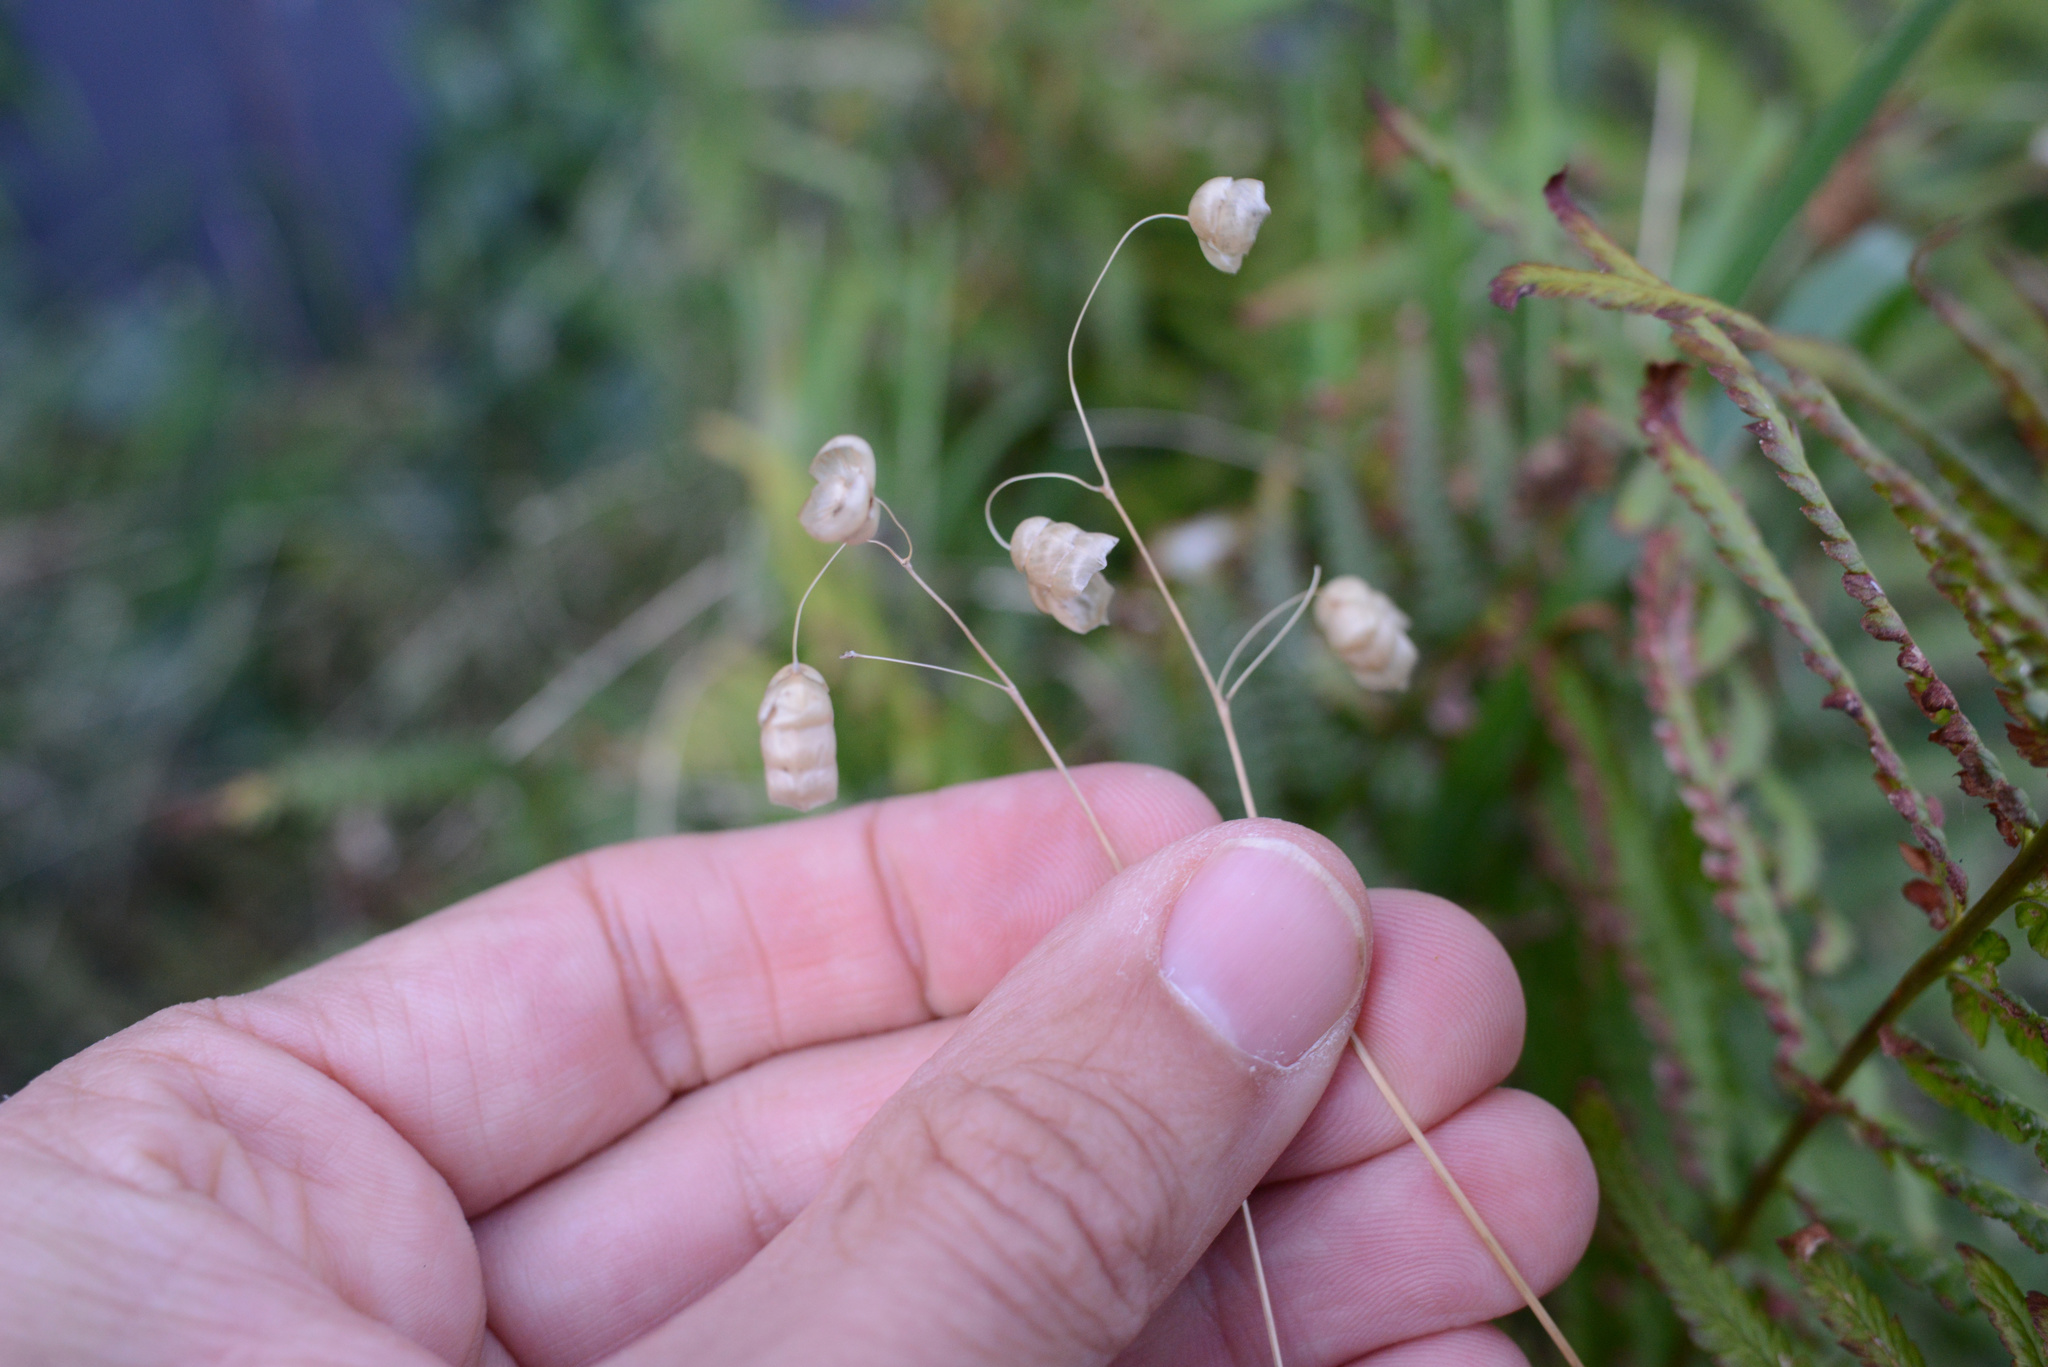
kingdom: Plantae
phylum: Tracheophyta
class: Liliopsida
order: Poales
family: Poaceae
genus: Briza
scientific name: Briza maxima
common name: Big quakinggrass
